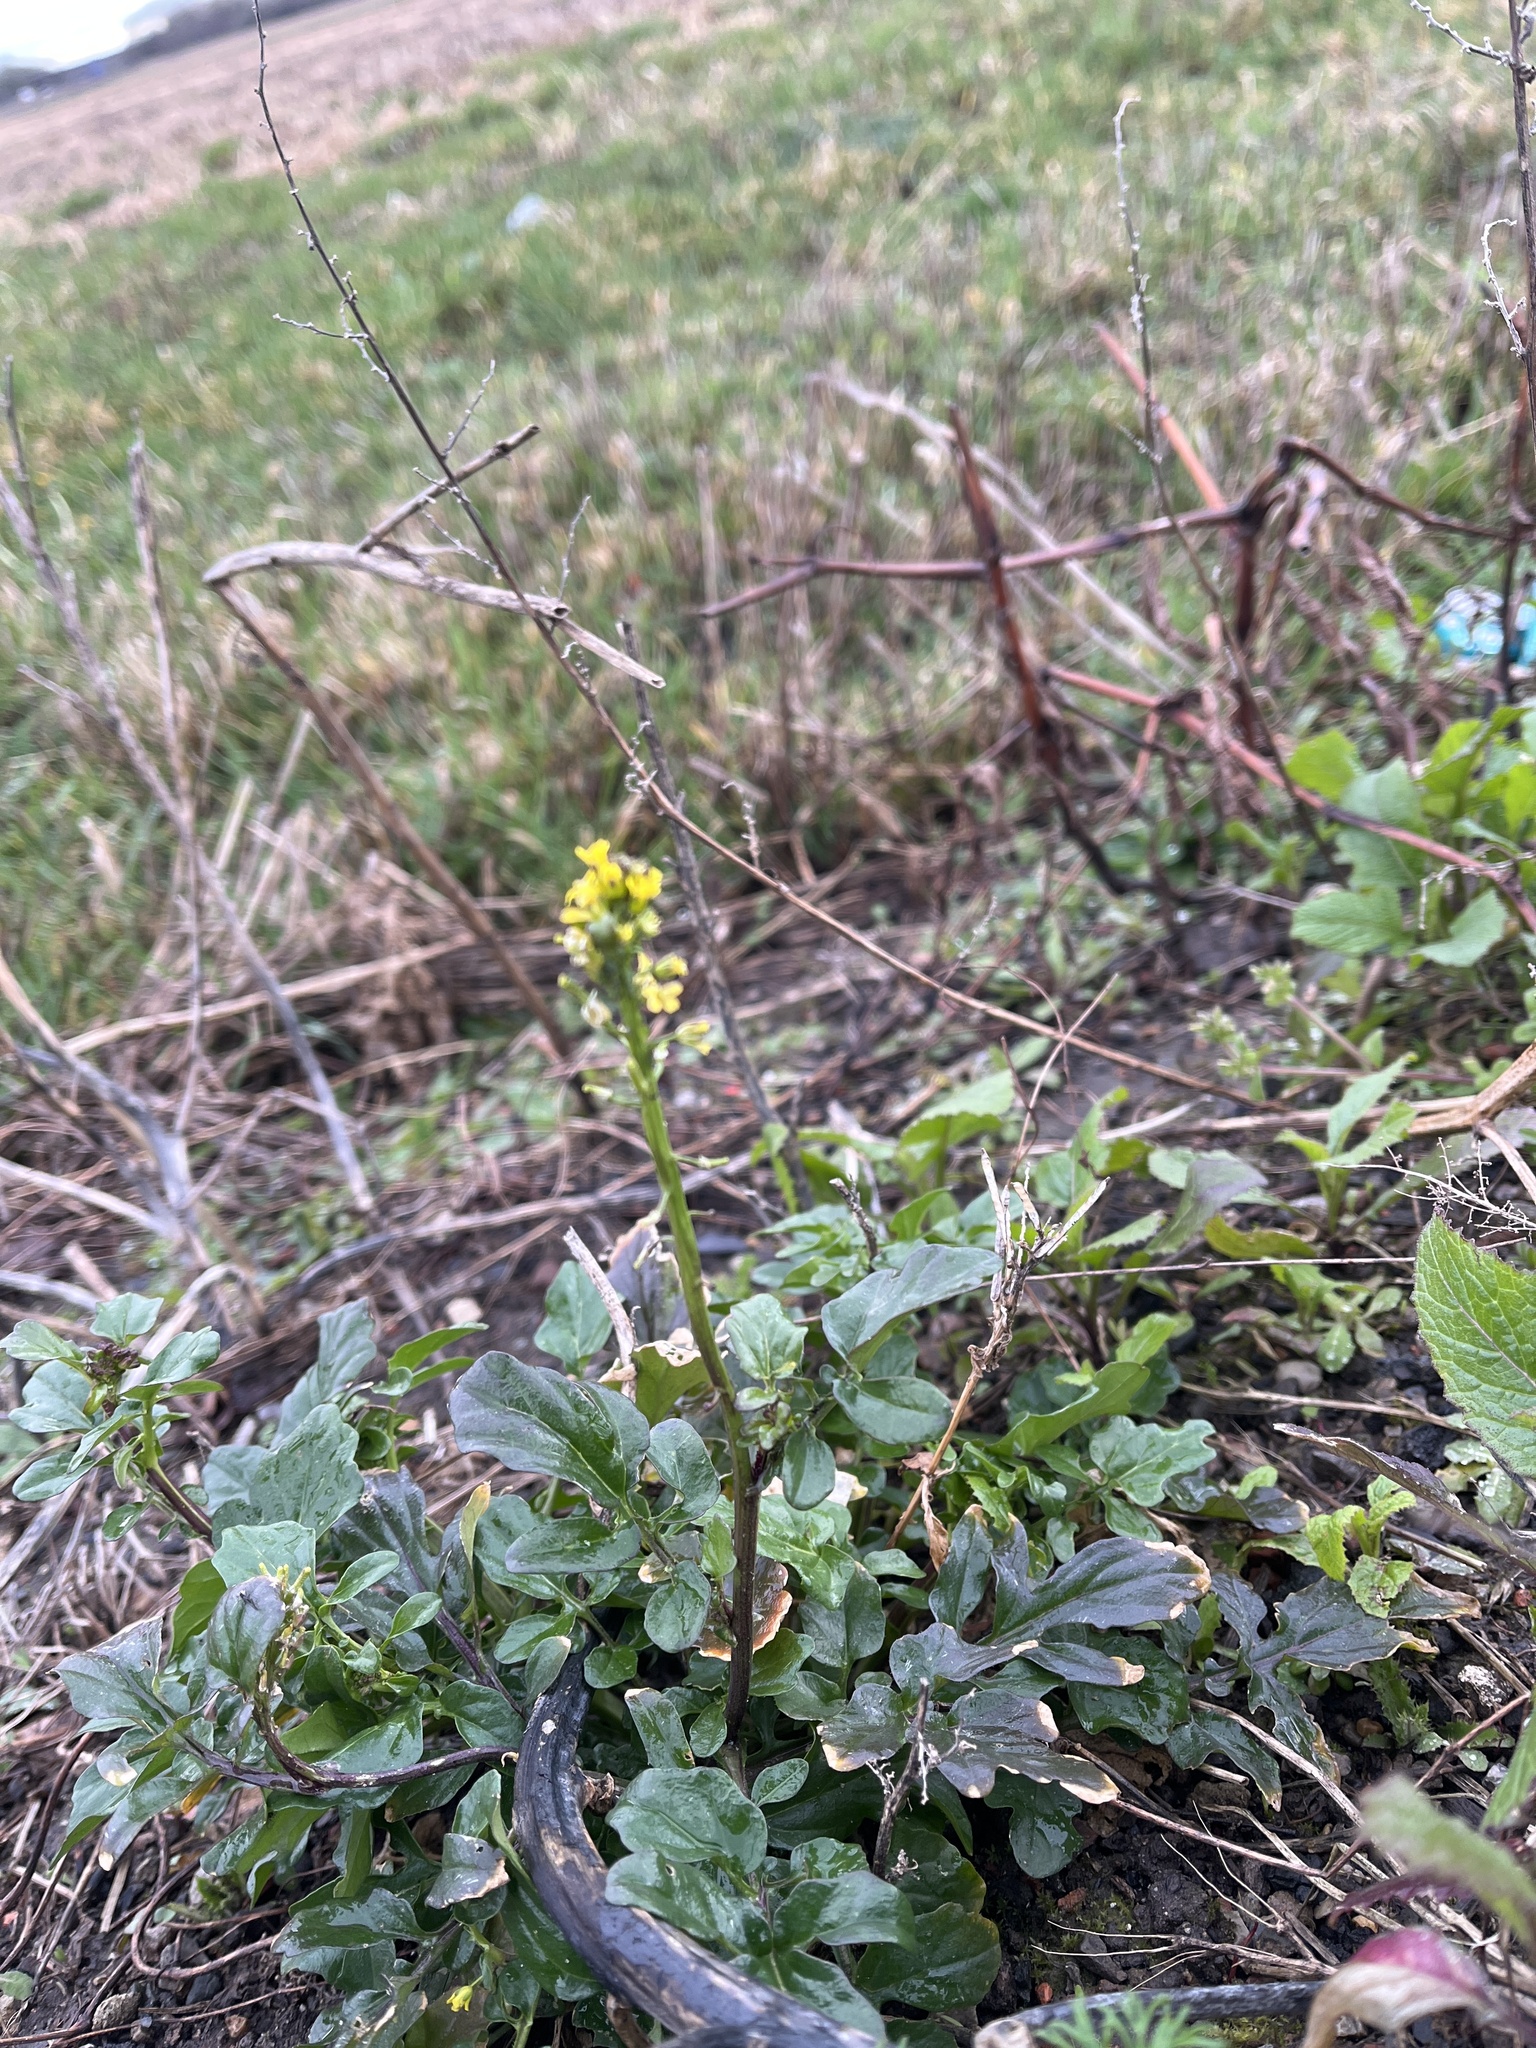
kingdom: Plantae
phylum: Tracheophyta
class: Magnoliopsida
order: Brassicales
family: Brassicaceae
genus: Barbarea
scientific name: Barbarea vulgaris
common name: Cressy-greens
